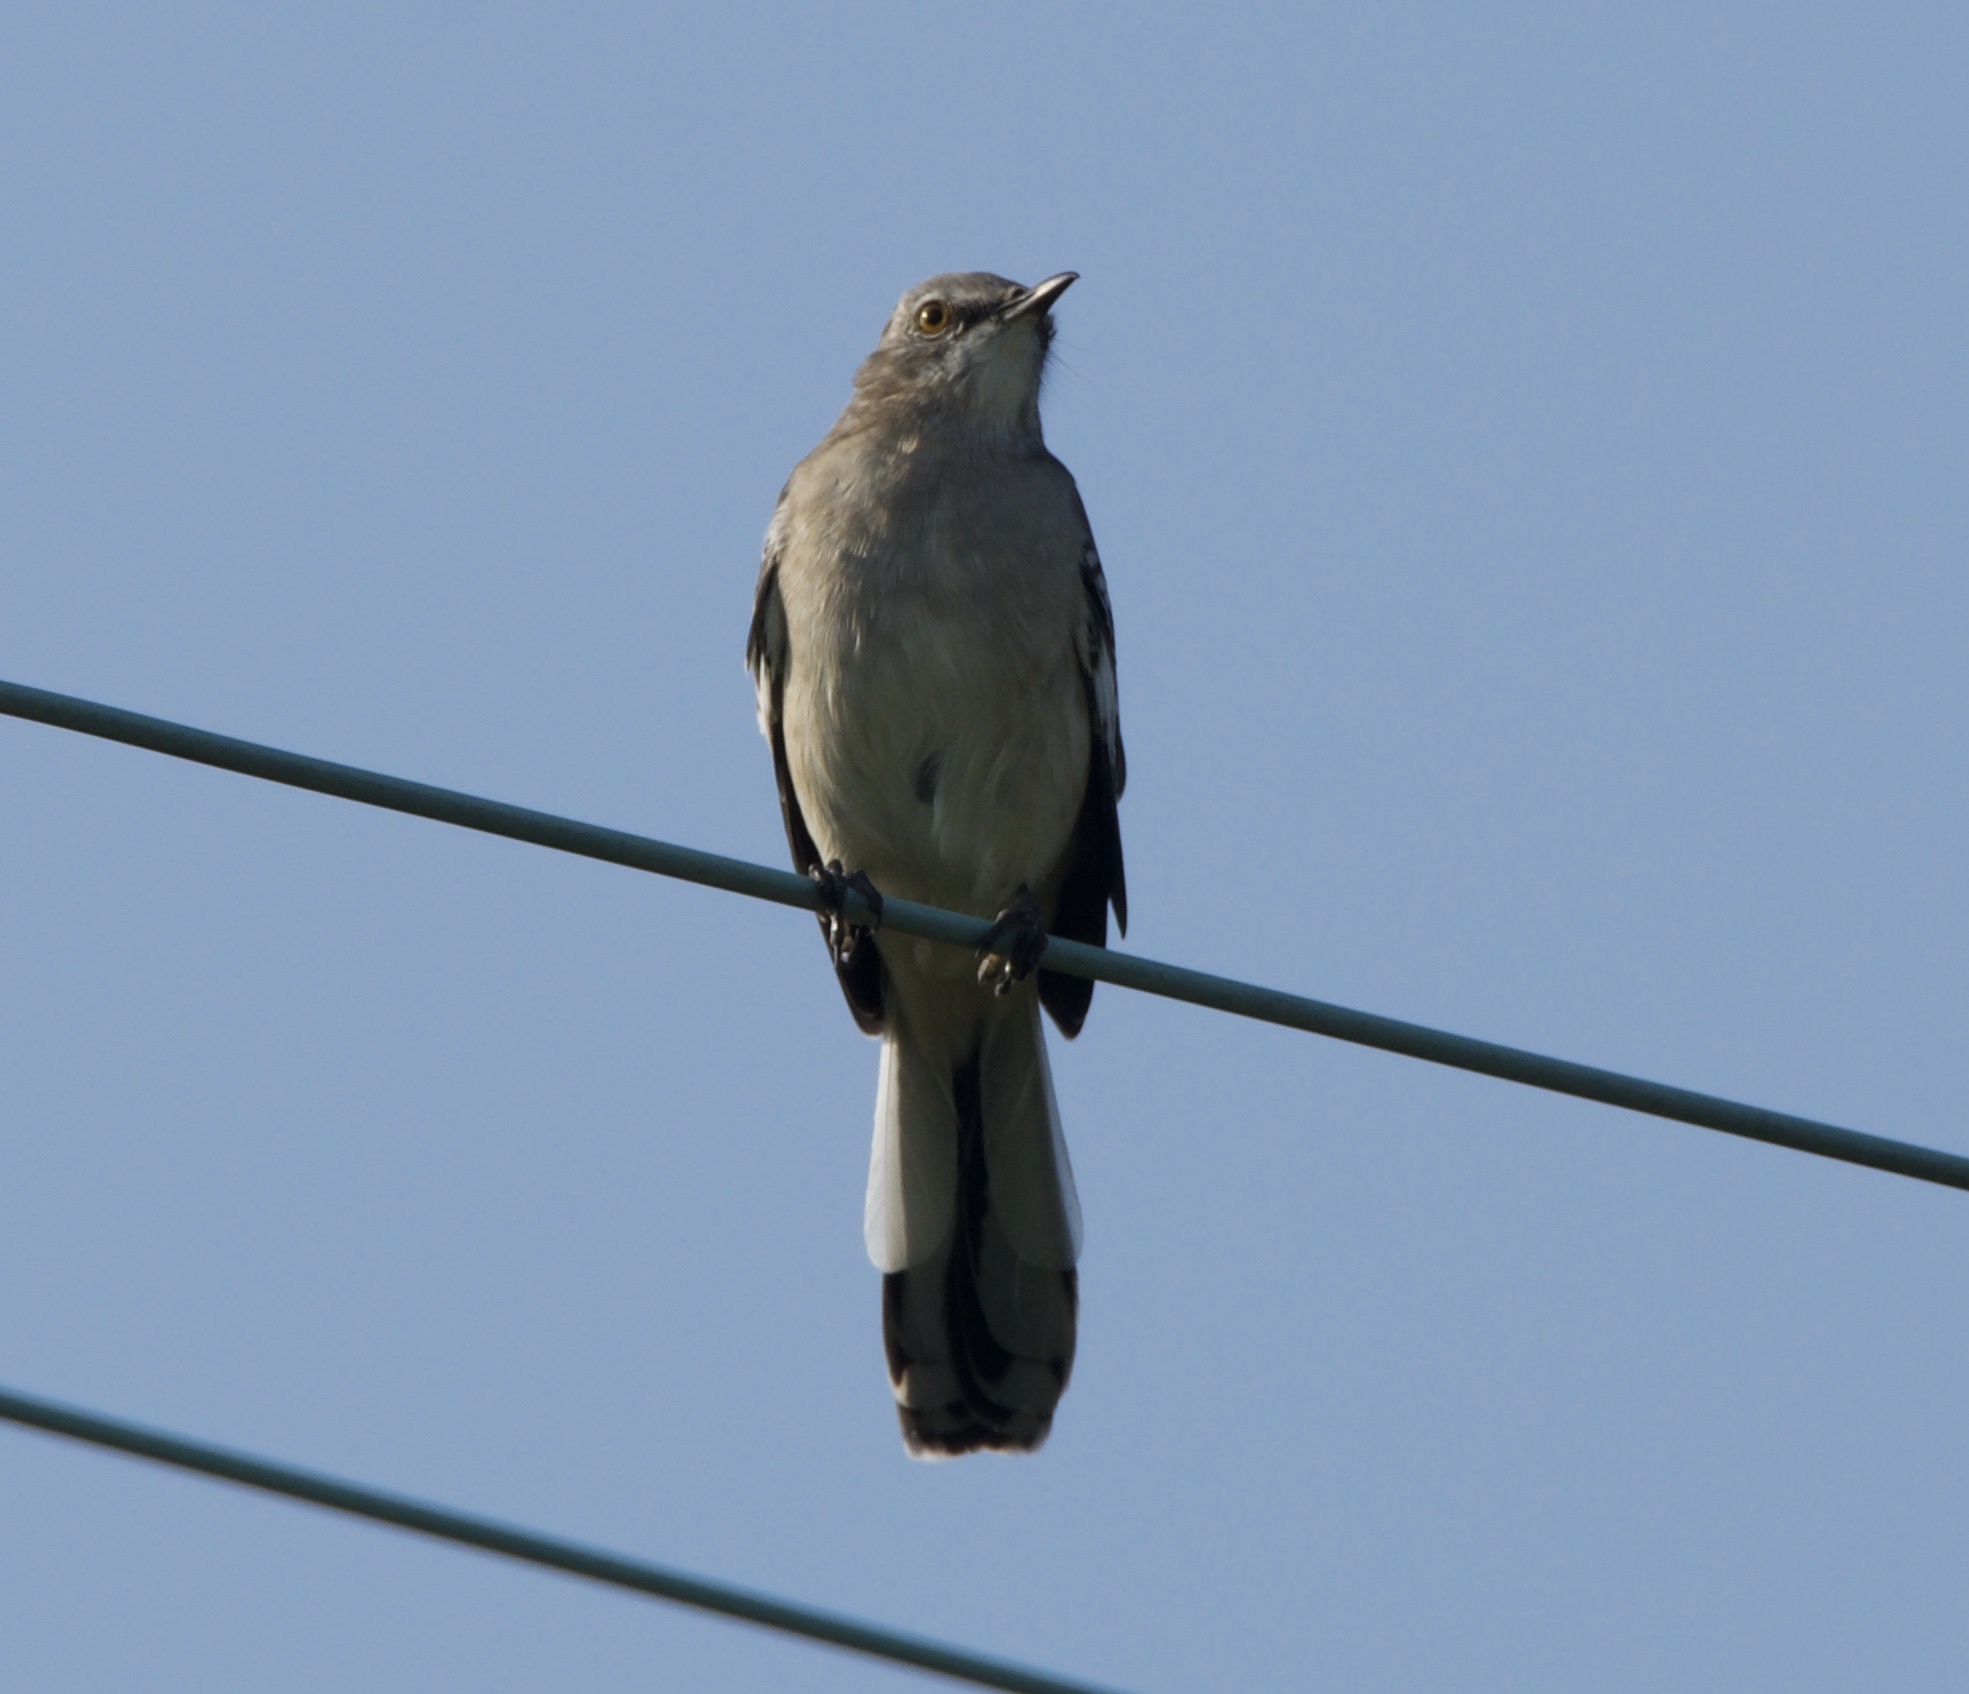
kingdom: Animalia
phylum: Chordata
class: Aves
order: Passeriformes
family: Mimidae
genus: Mimus
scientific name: Mimus polyglottos
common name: Northern mockingbird
